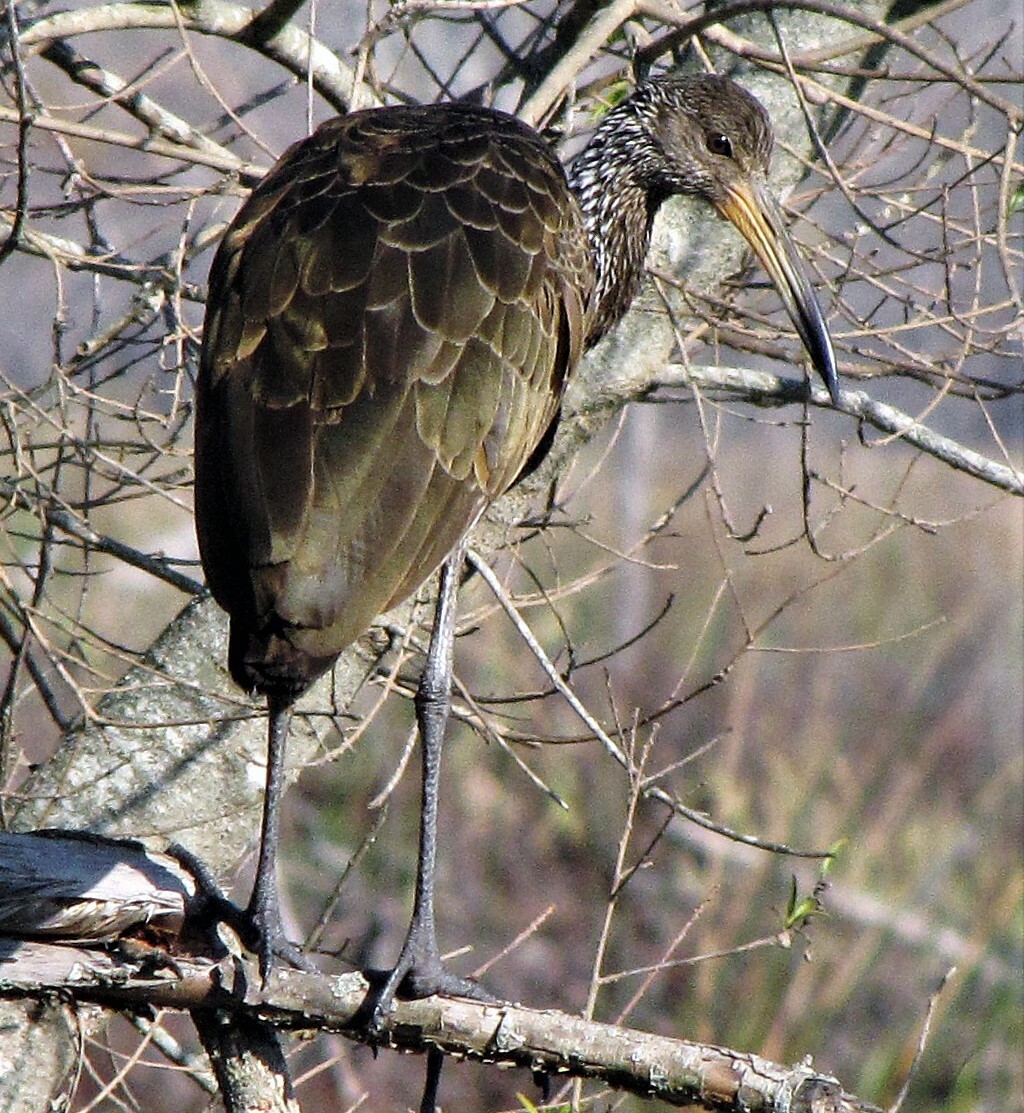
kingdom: Animalia
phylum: Chordata
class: Aves
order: Gruiformes
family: Aramidae
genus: Aramus
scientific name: Aramus guarauna
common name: Limpkin
